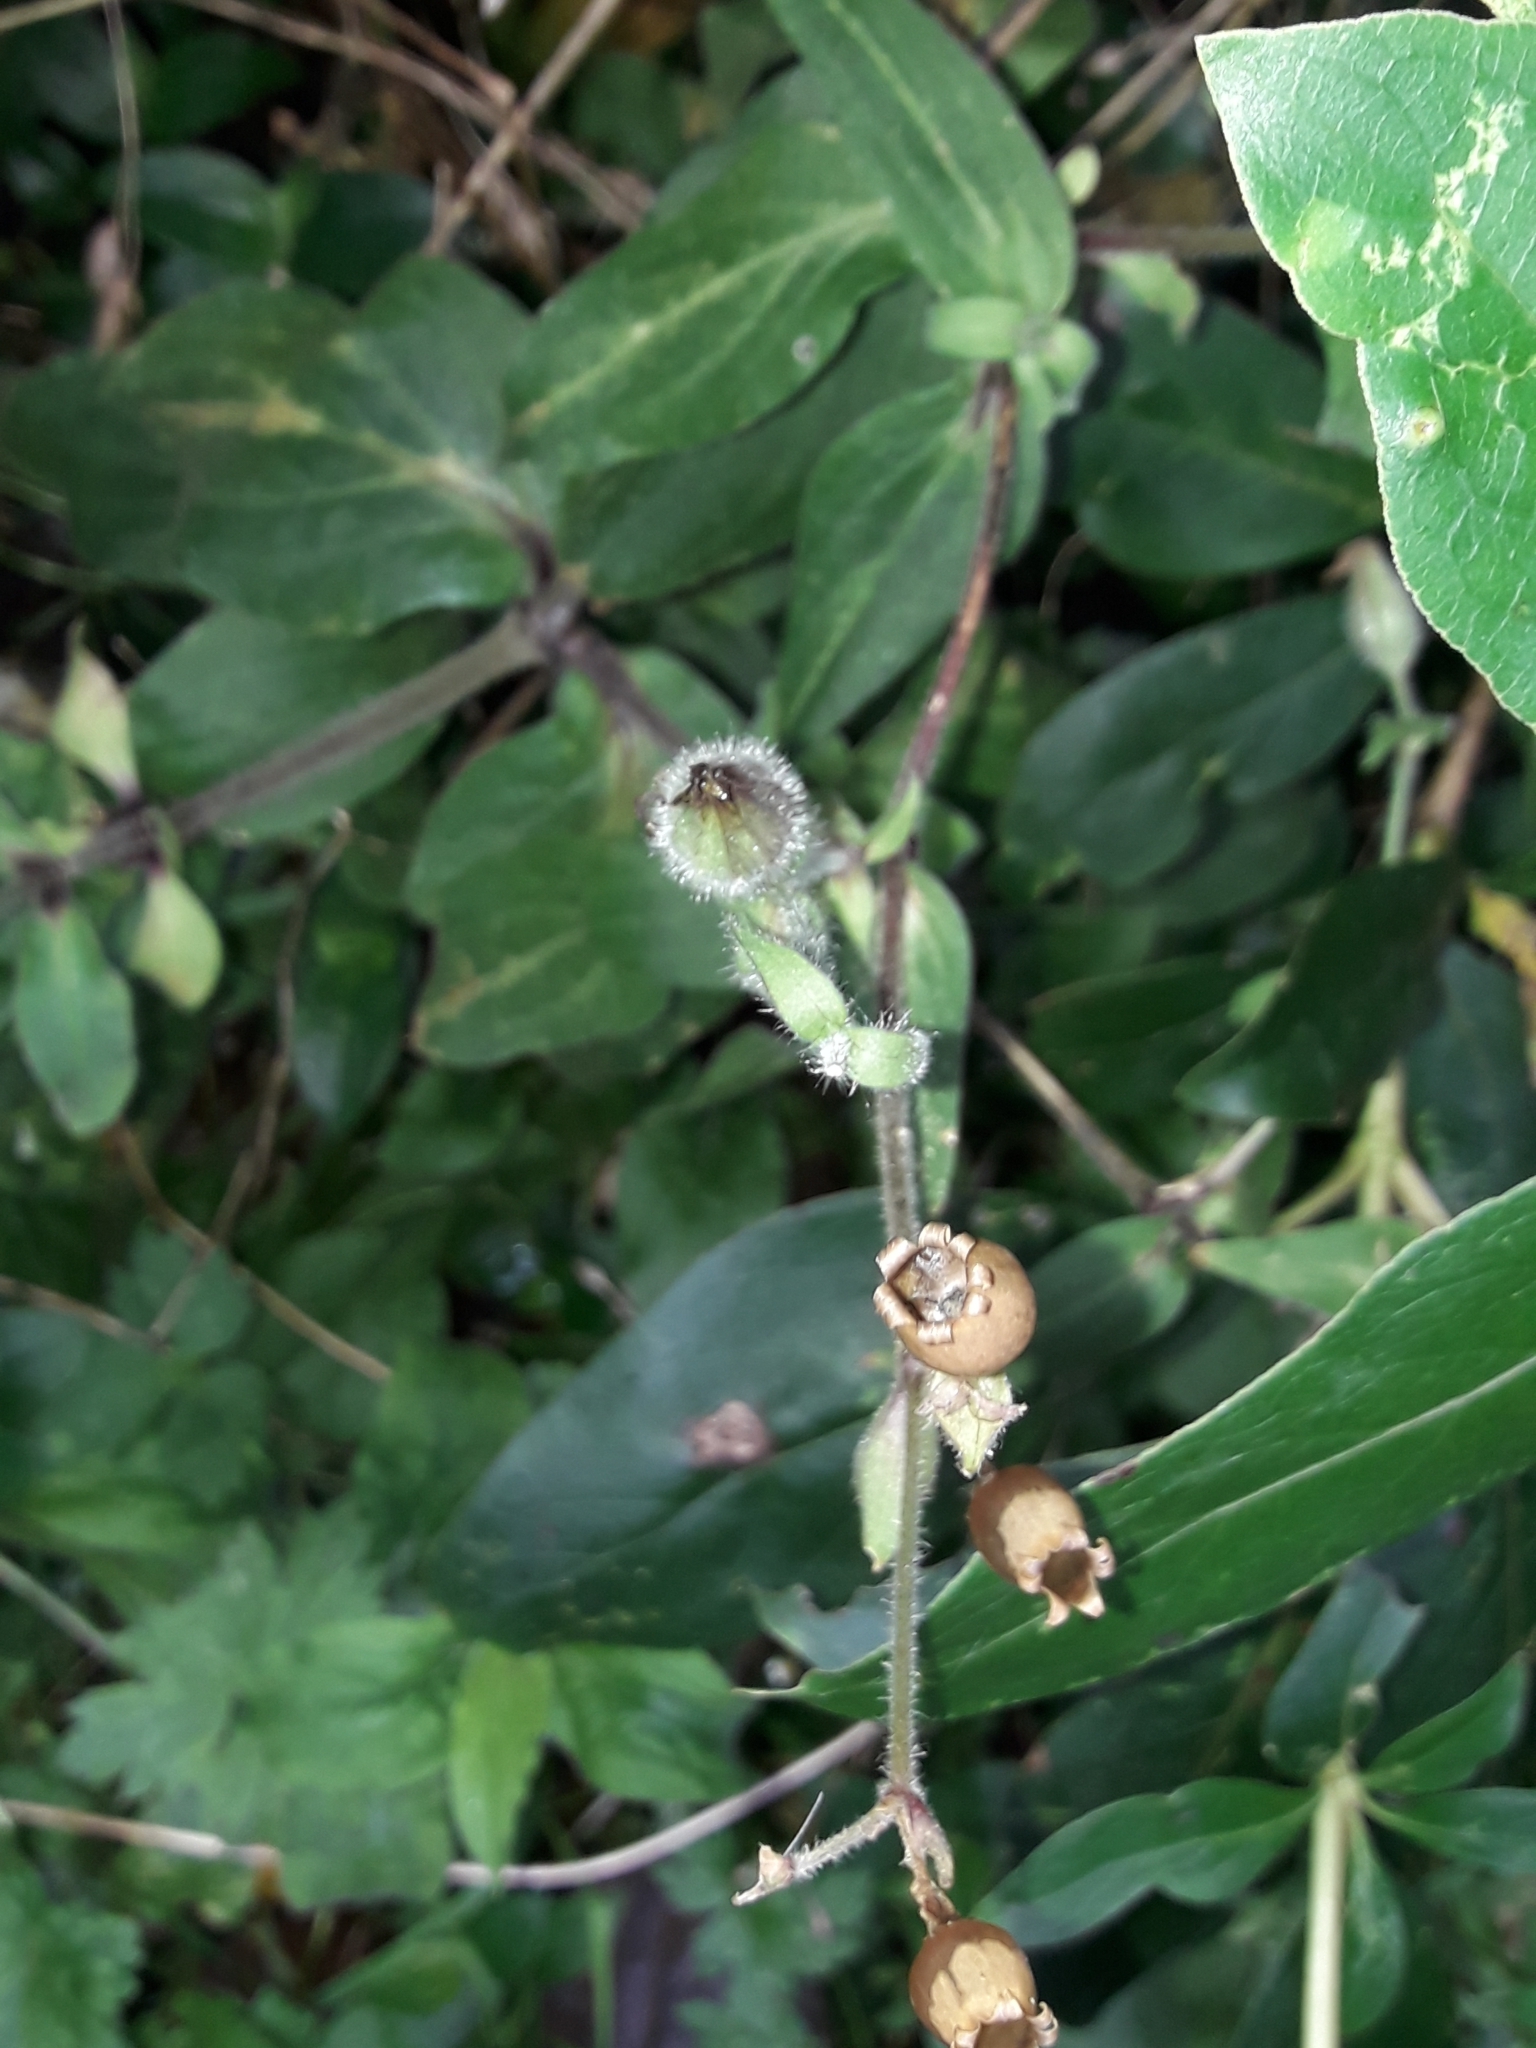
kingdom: Plantae
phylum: Tracheophyta
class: Magnoliopsida
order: Caryophyllales
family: Caryophyllaceae
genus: Silene
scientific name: Silene dioica
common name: Red campion
